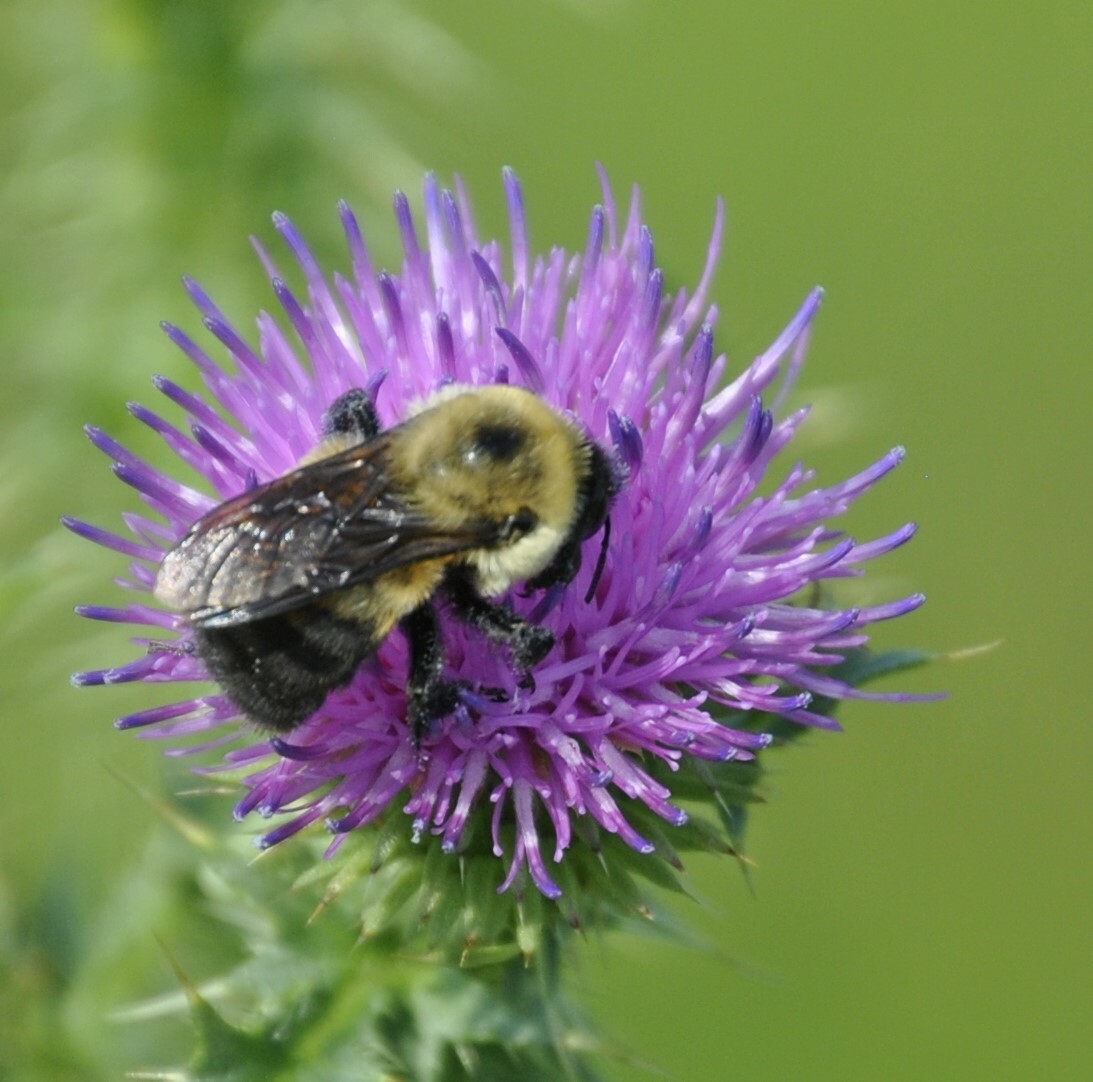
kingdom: Animalia
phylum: Arthropoda
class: Insecta
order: Hymenoptera
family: Apidae
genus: Bombus
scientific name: Bombus griseocollis
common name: Brown-belted bumble bee
